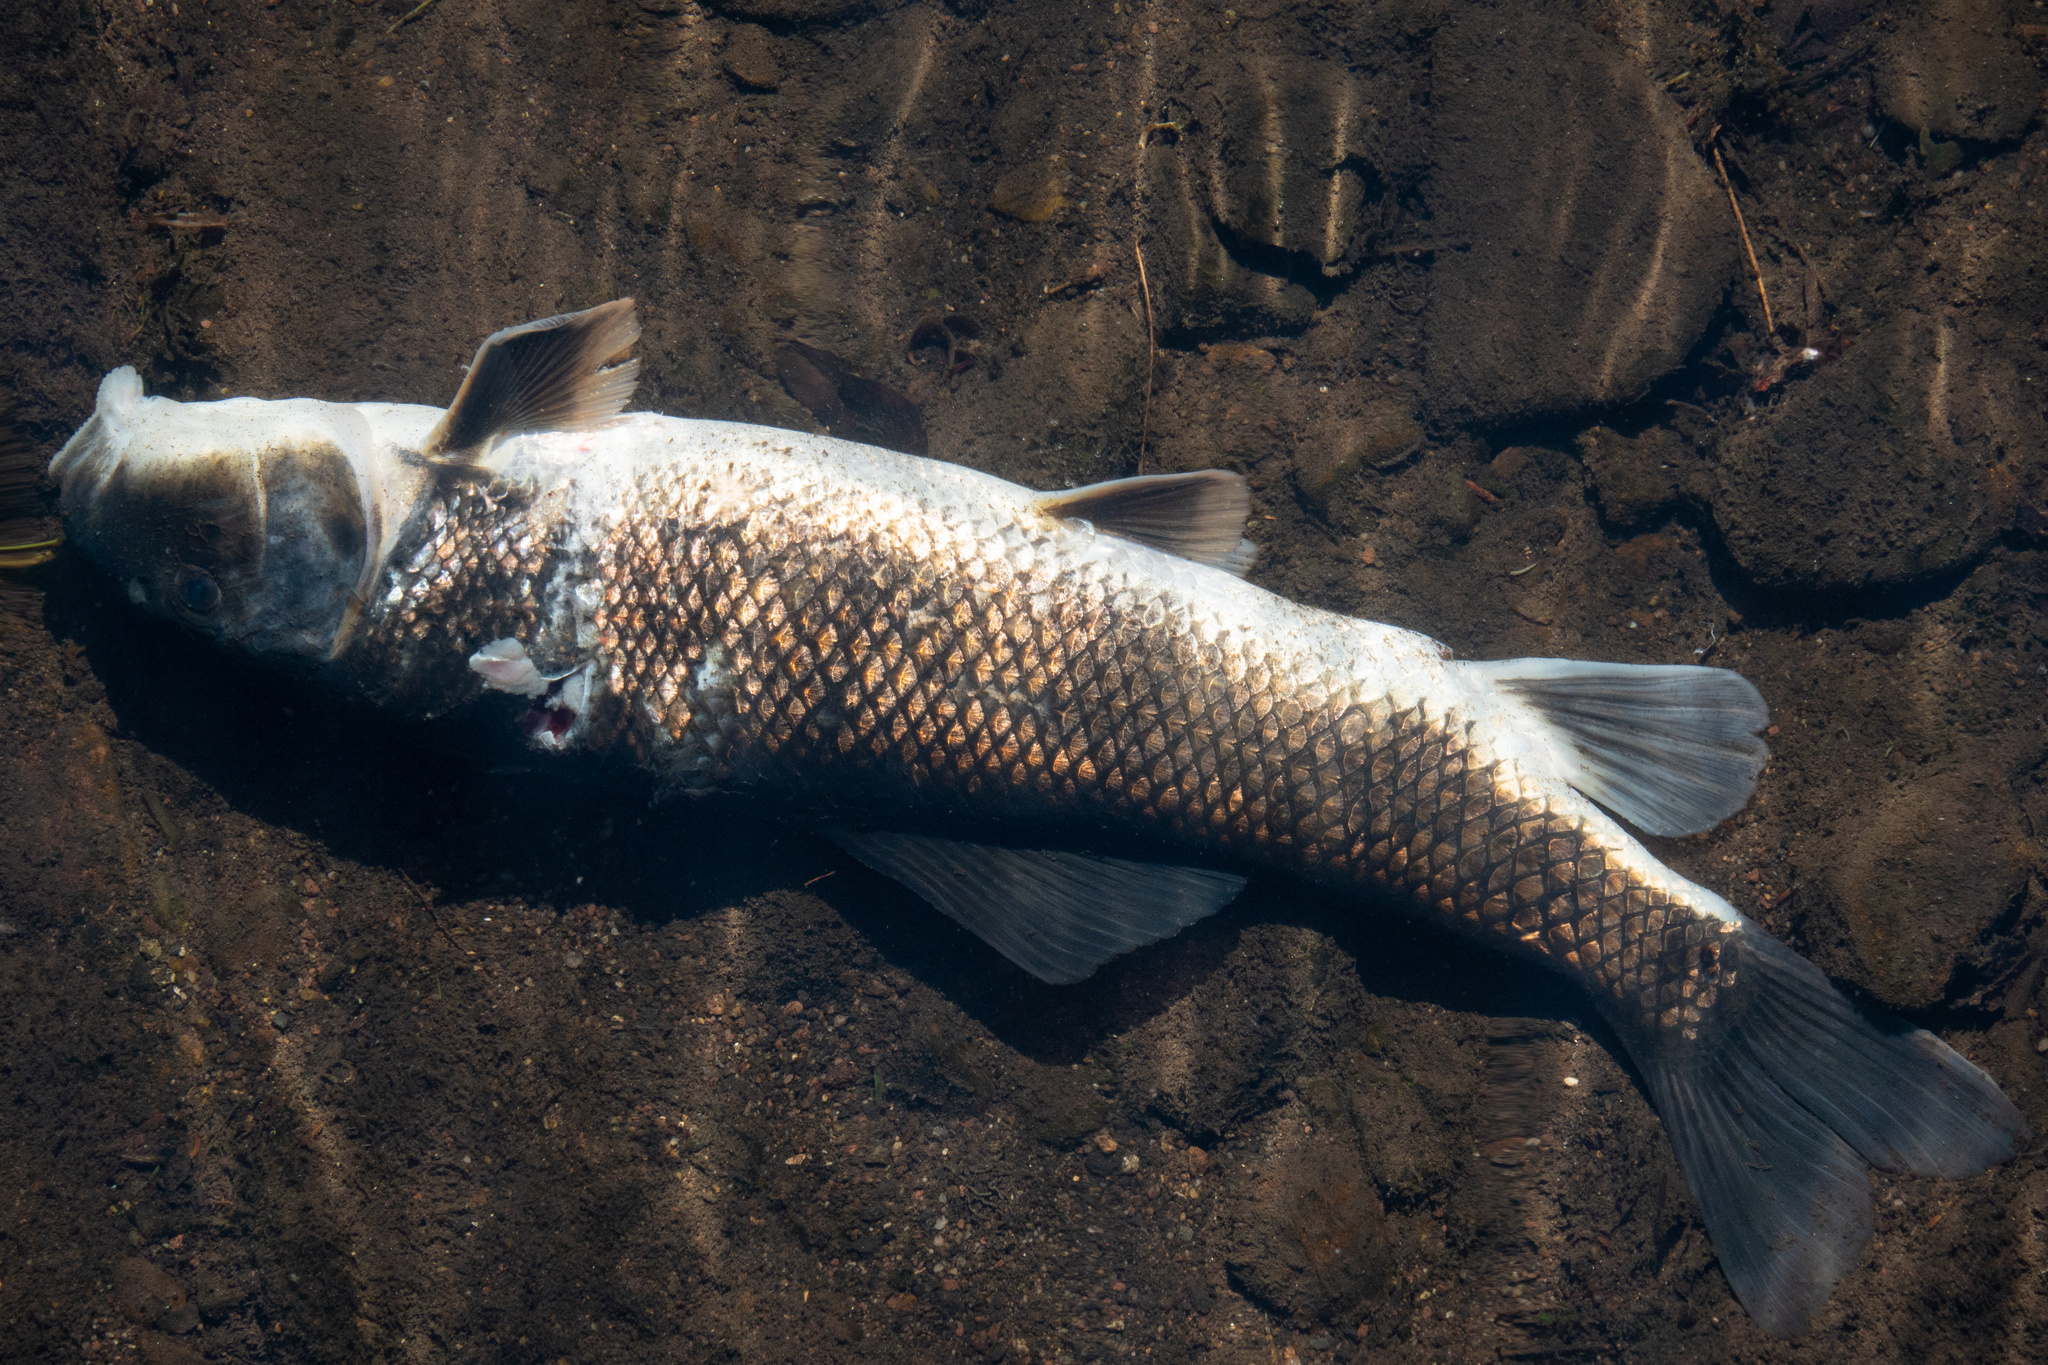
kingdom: Animalia
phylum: Chordata
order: Cypriniformes
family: Catostomidae
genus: Catostomus
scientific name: Catostomus commersonii
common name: White sucker
